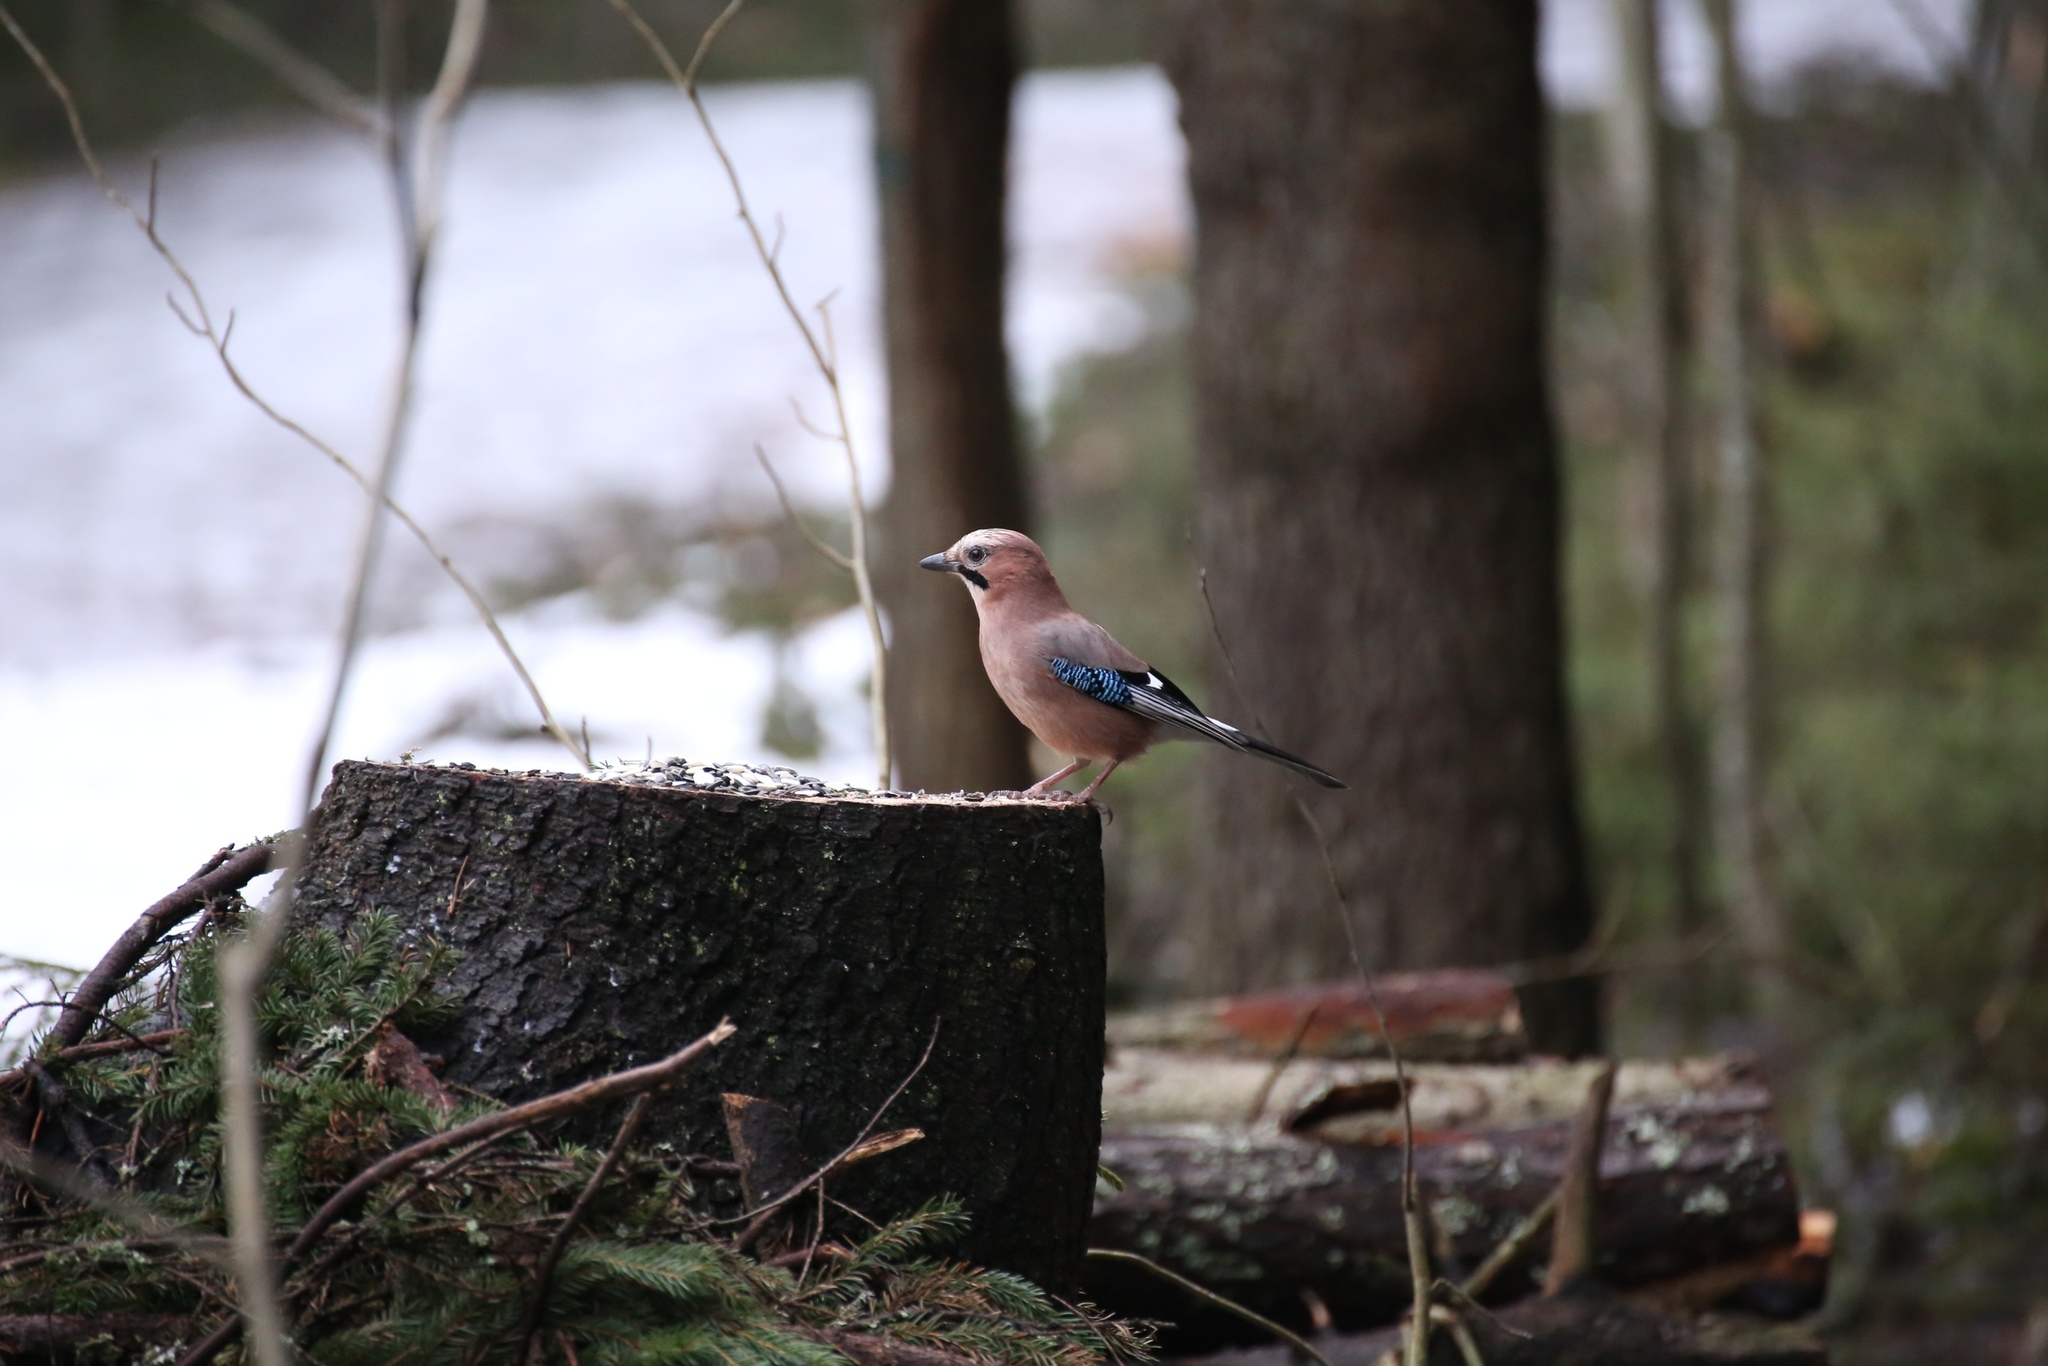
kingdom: Animalia
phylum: Chordata
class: Aves
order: Passeriformes
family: Corvidae
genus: Garrulus
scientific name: Garrulus glandarius
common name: Eurasian jay
